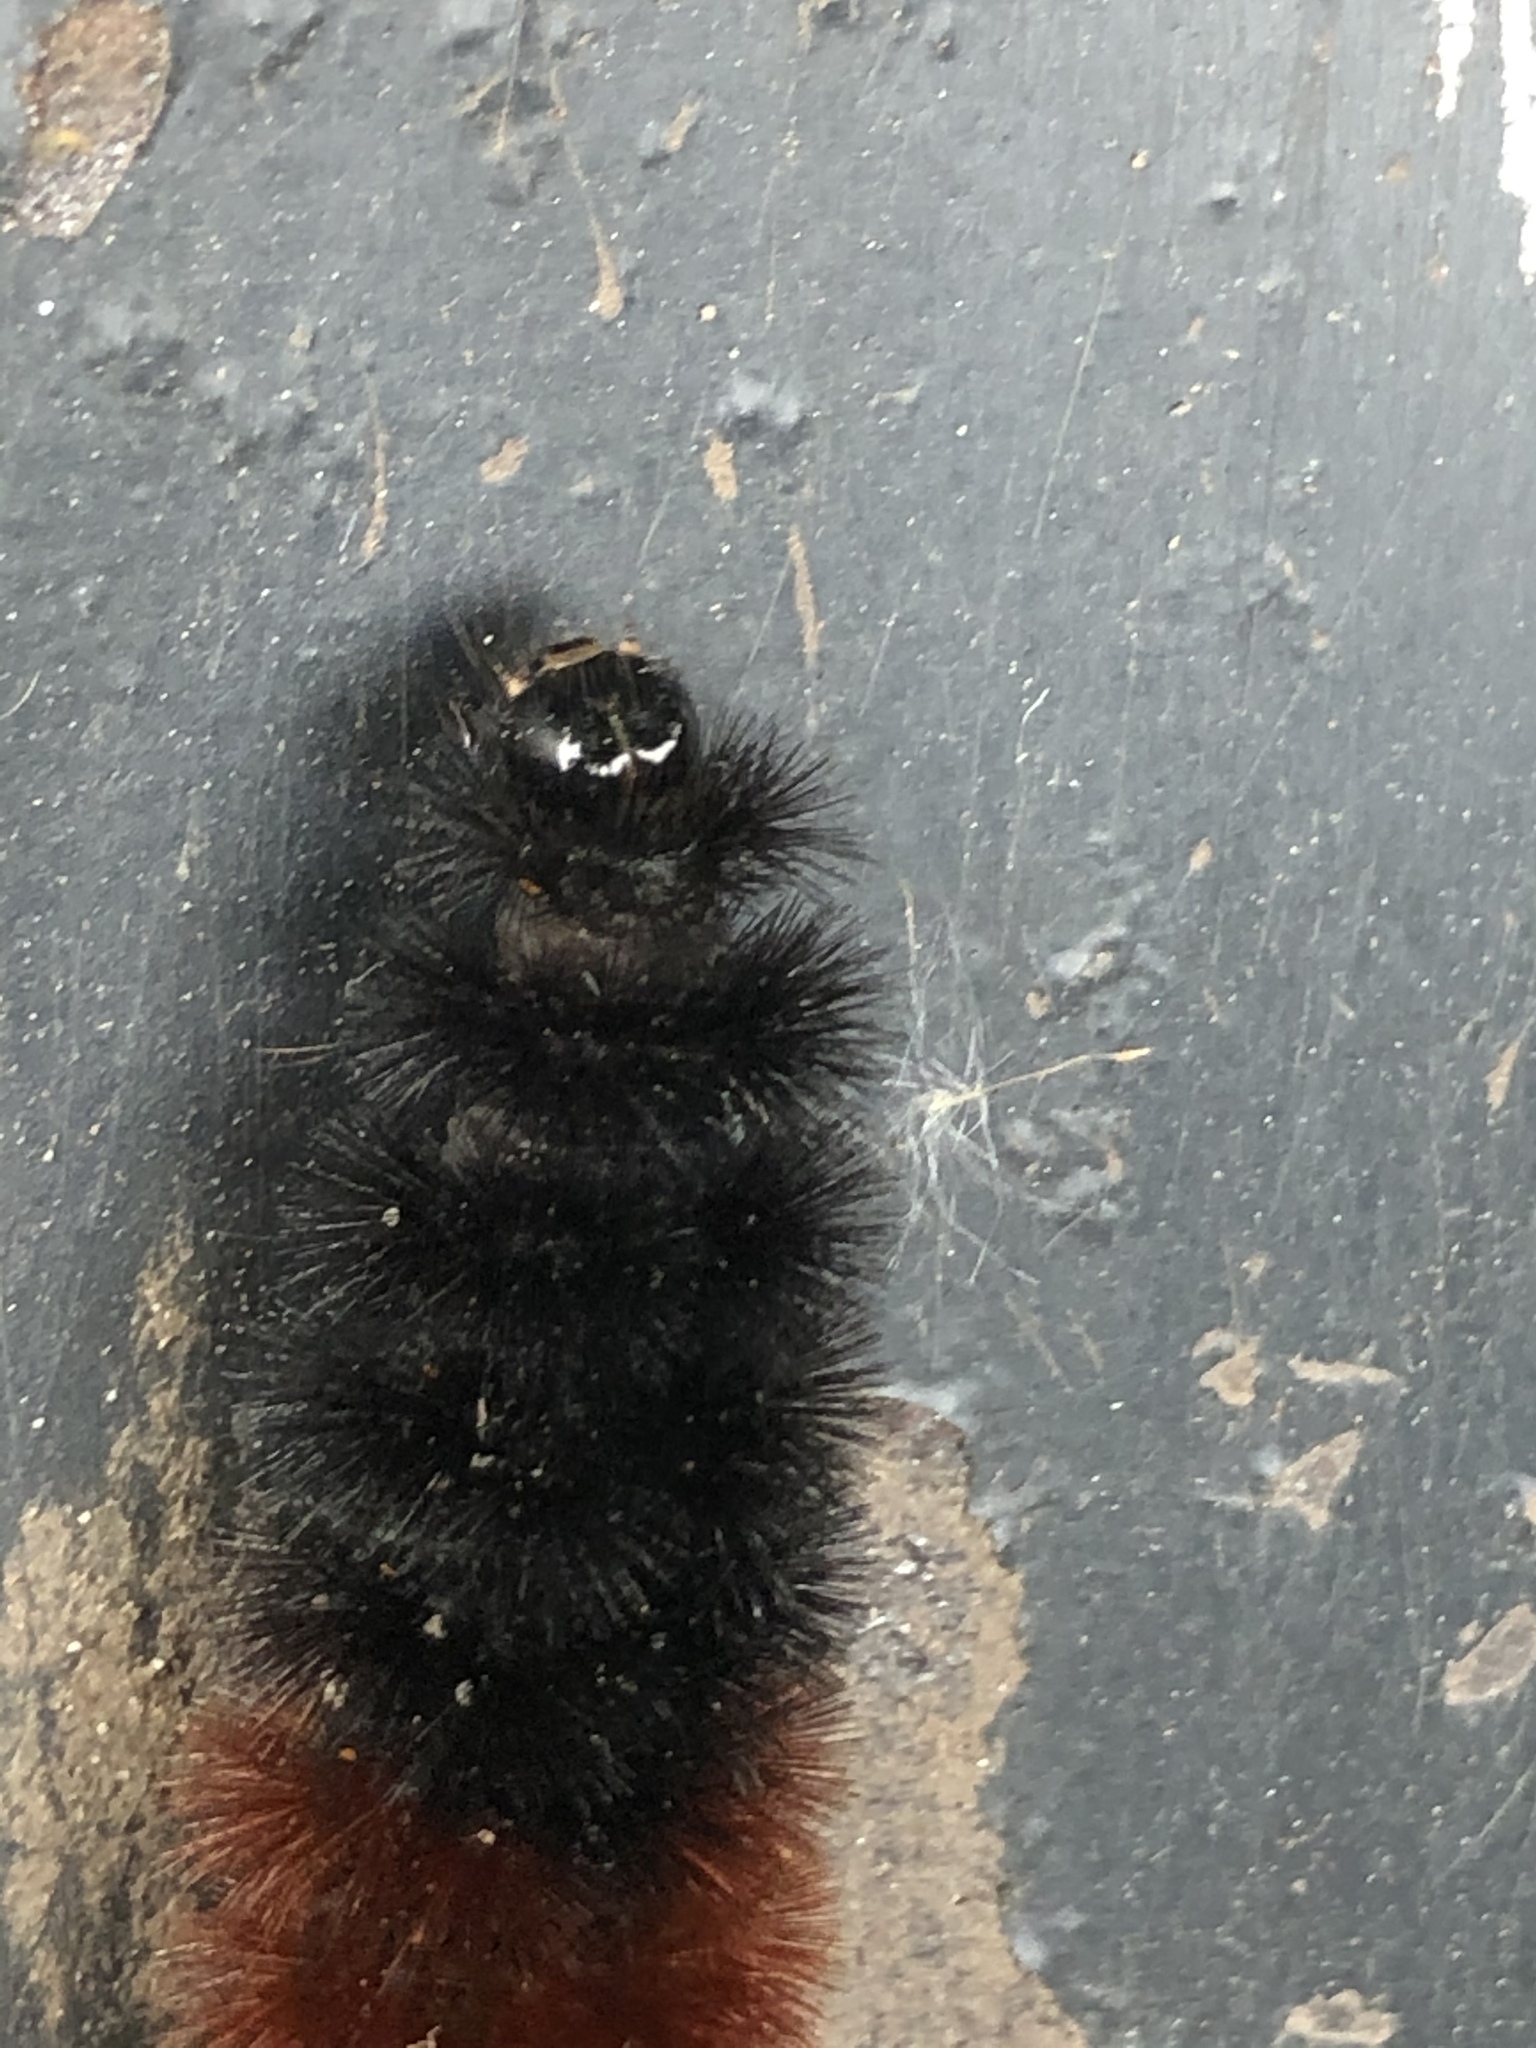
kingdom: Animalia
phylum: Arthropoda
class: Insecta
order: Lepidoptera
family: Erebidae
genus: Pyrrharctia
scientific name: Pyrrharctia isabella
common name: Isabella tiger moth
